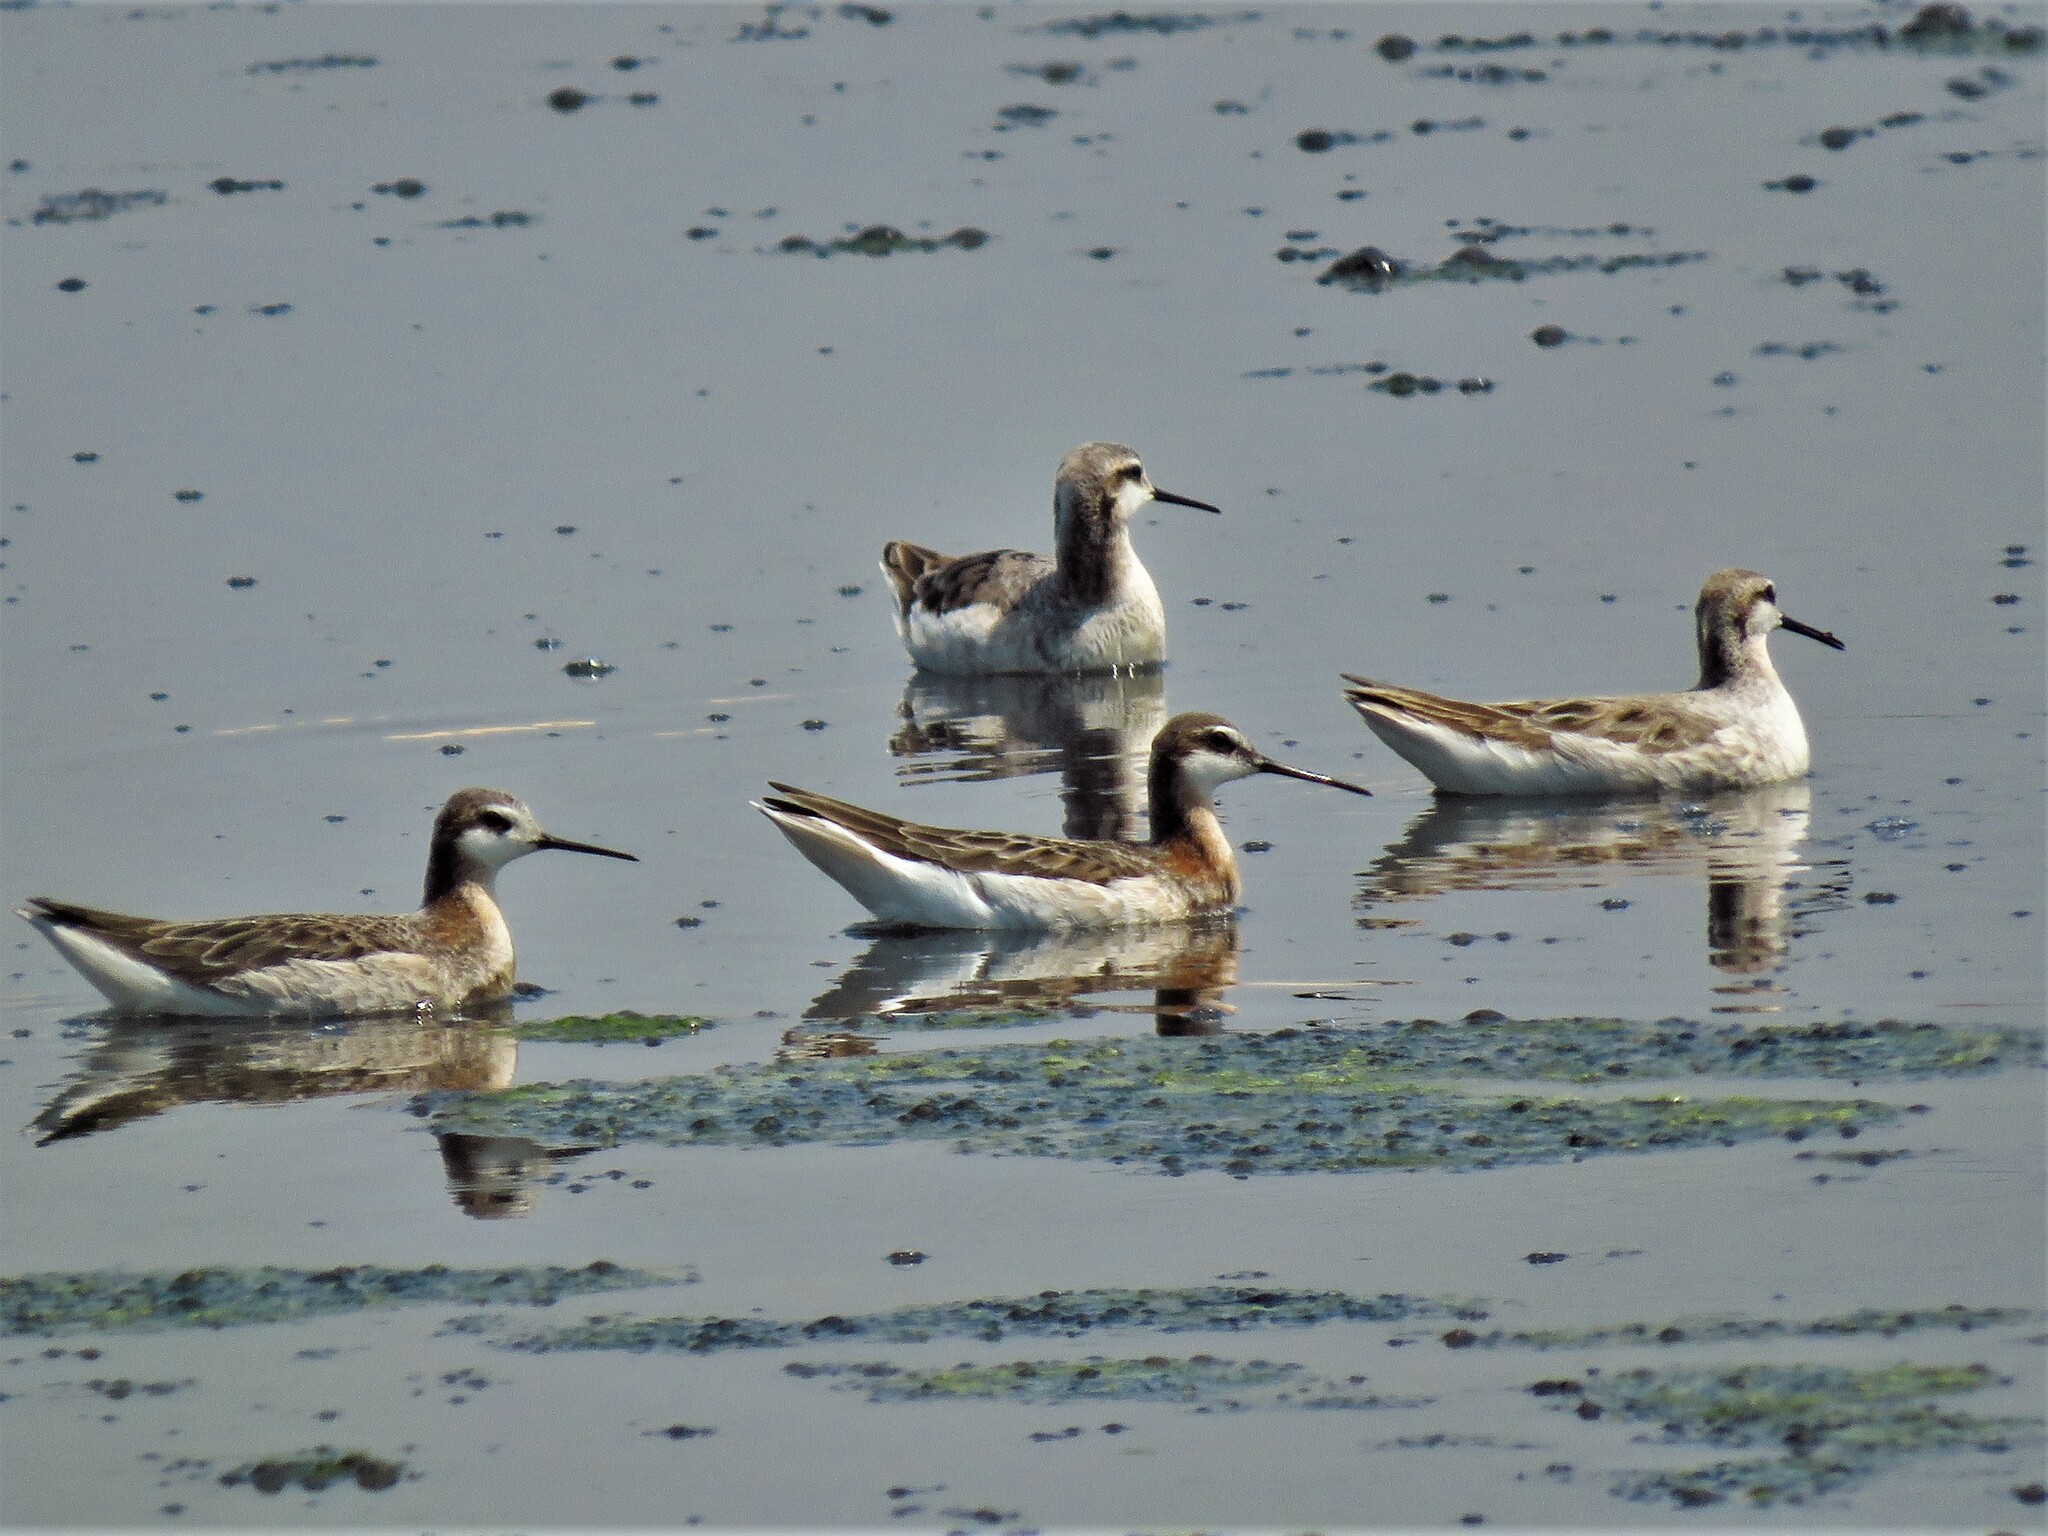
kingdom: Animalia
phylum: Chordata
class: Aves
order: Charadriiformes
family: Scolopacidae
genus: Phalaropus
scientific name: Phalaropus tricolor
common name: Wilson's phalarope
